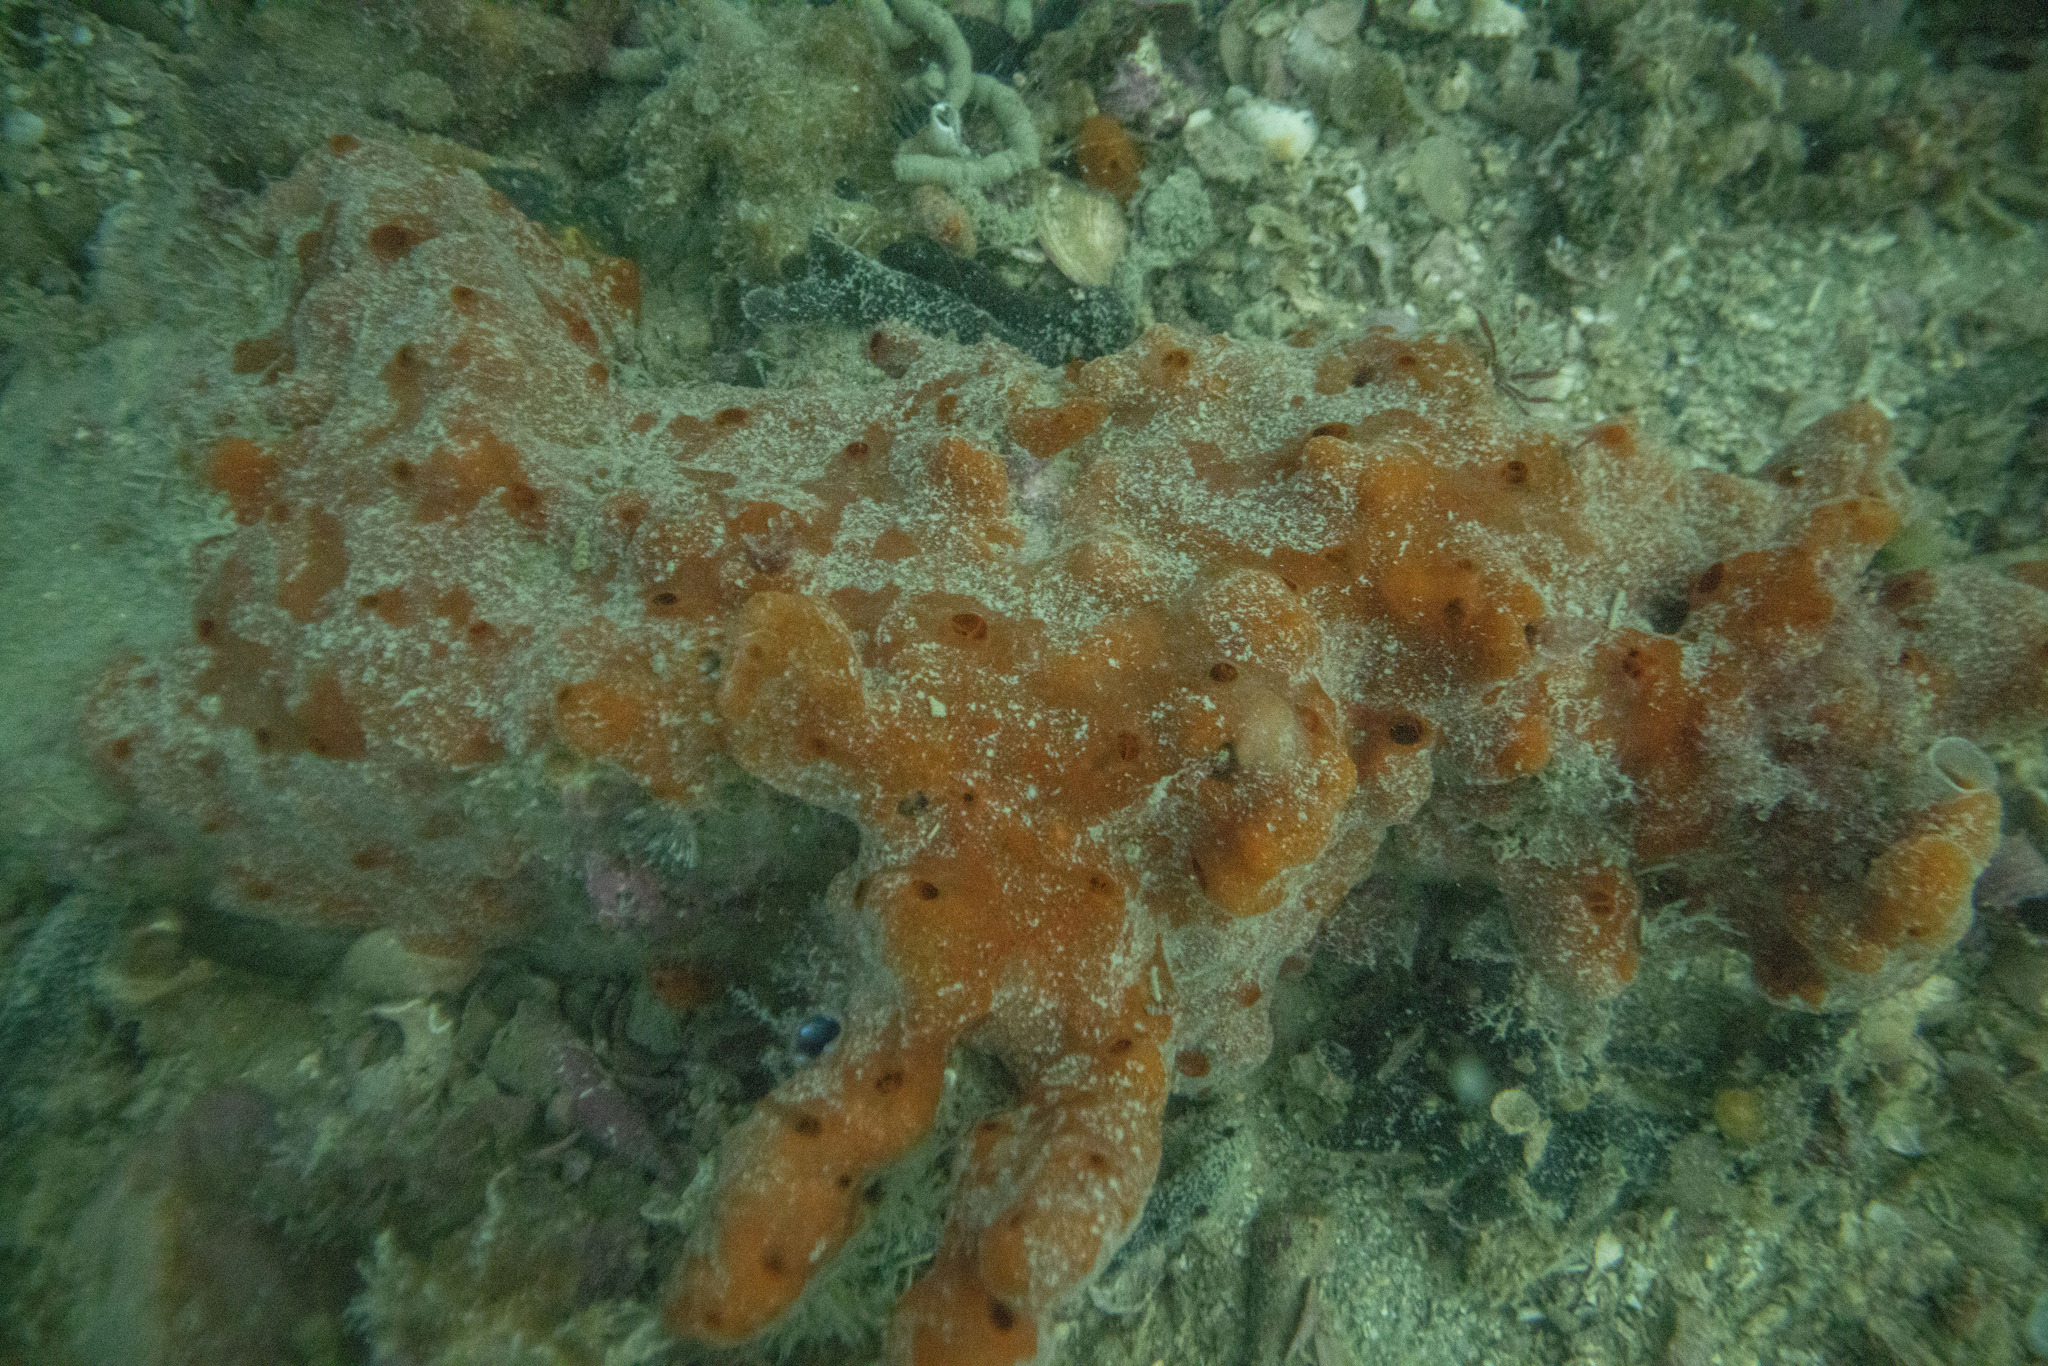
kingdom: Animalia
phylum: Porifera
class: Demospongiae
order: Poecilosclerida
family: Microcionidae
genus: Clathria
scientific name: Clathria macrotoxa
